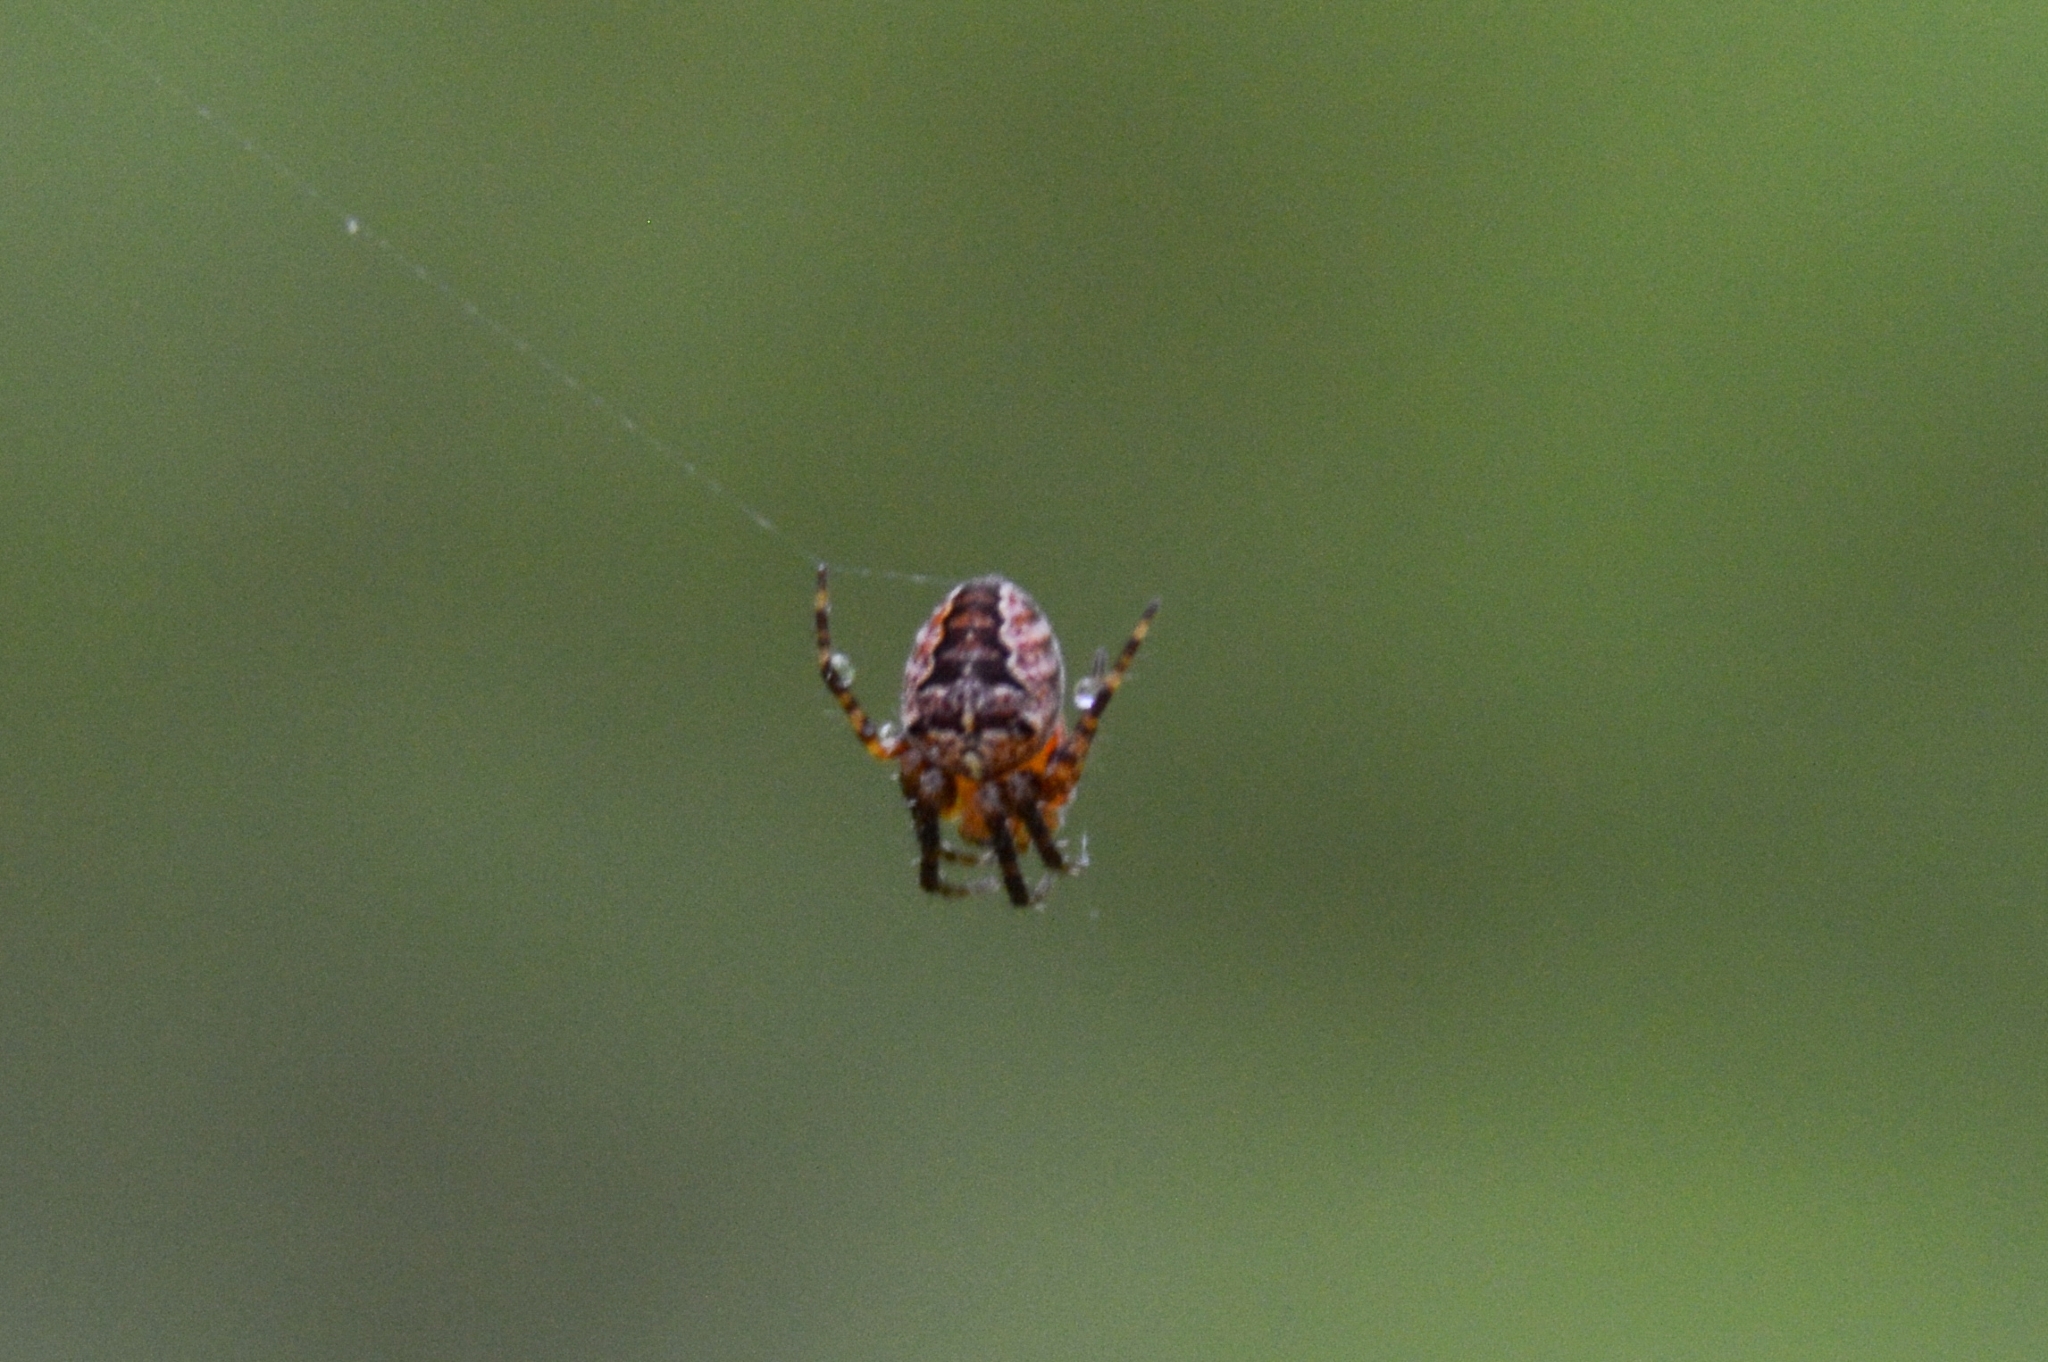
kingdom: Animalia
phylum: Arthropoda
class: Arachnida
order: Araneae
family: Araneidae
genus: Araneus
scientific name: Araneus diadematus
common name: Cross orbweaver
